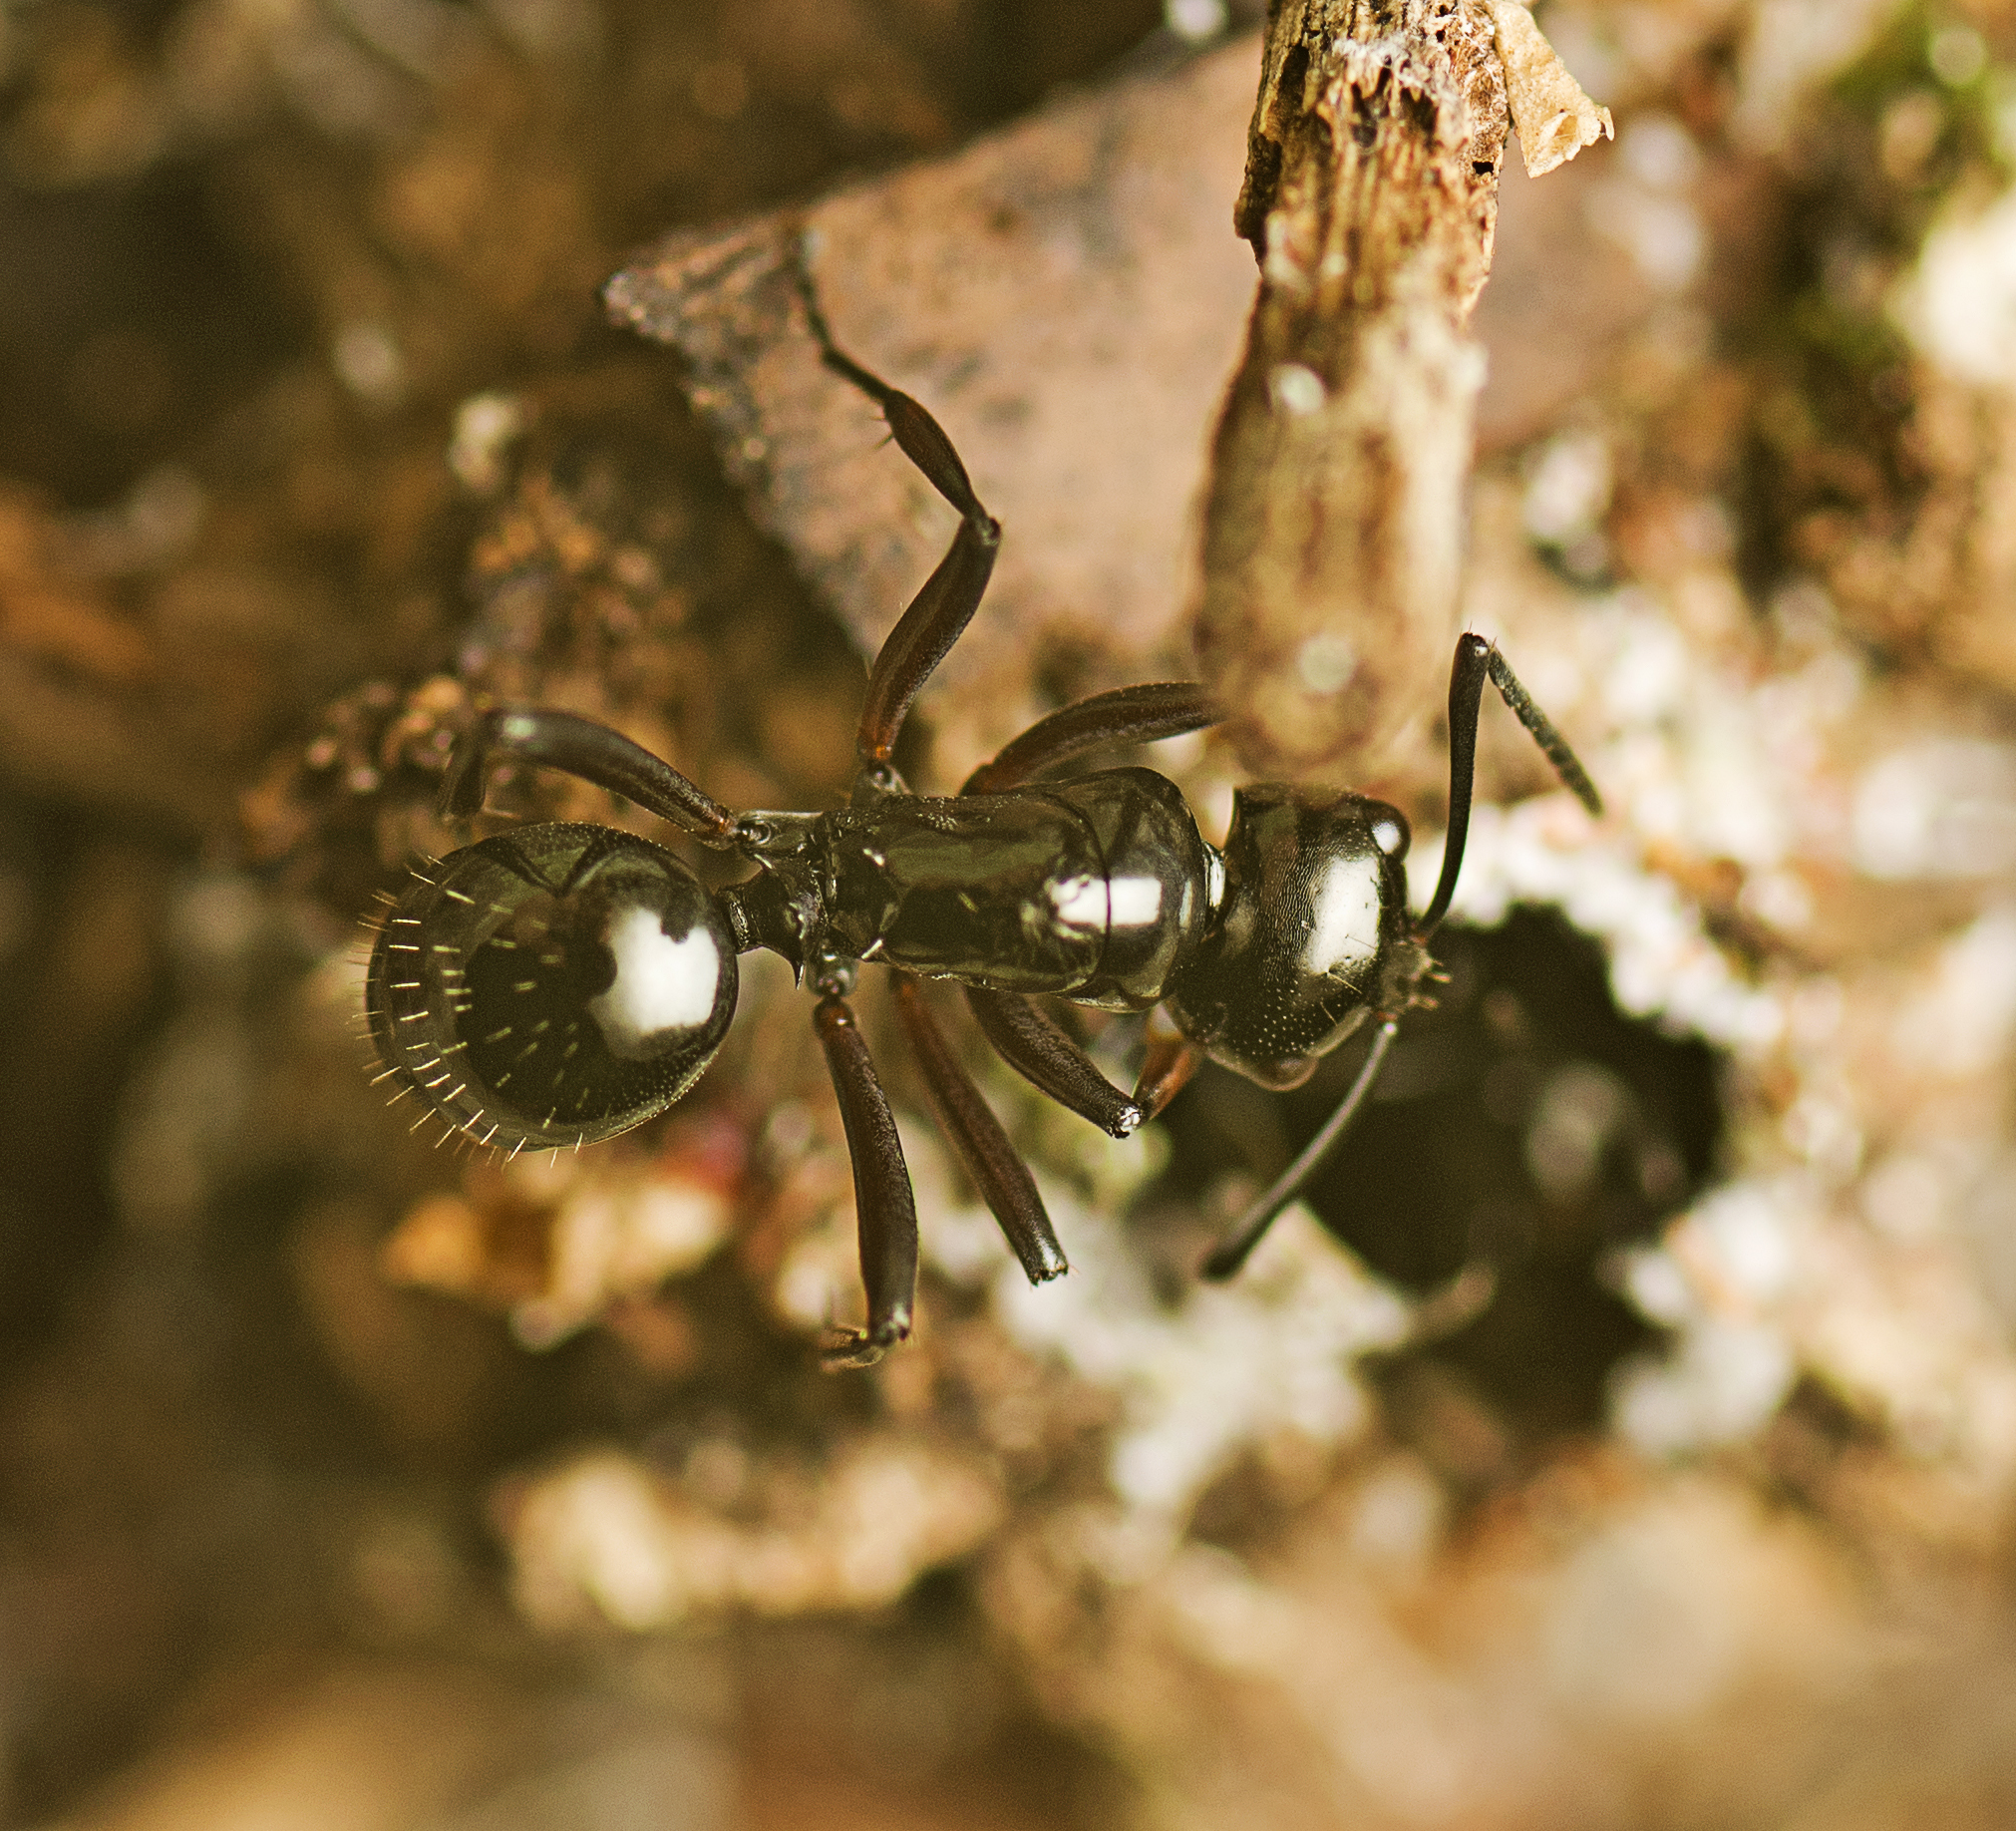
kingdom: Animalia
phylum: Arthropoda
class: Insecta
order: Hymenoptera
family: Formicidae
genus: Polyrhachis
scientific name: Polyrhachis australis
